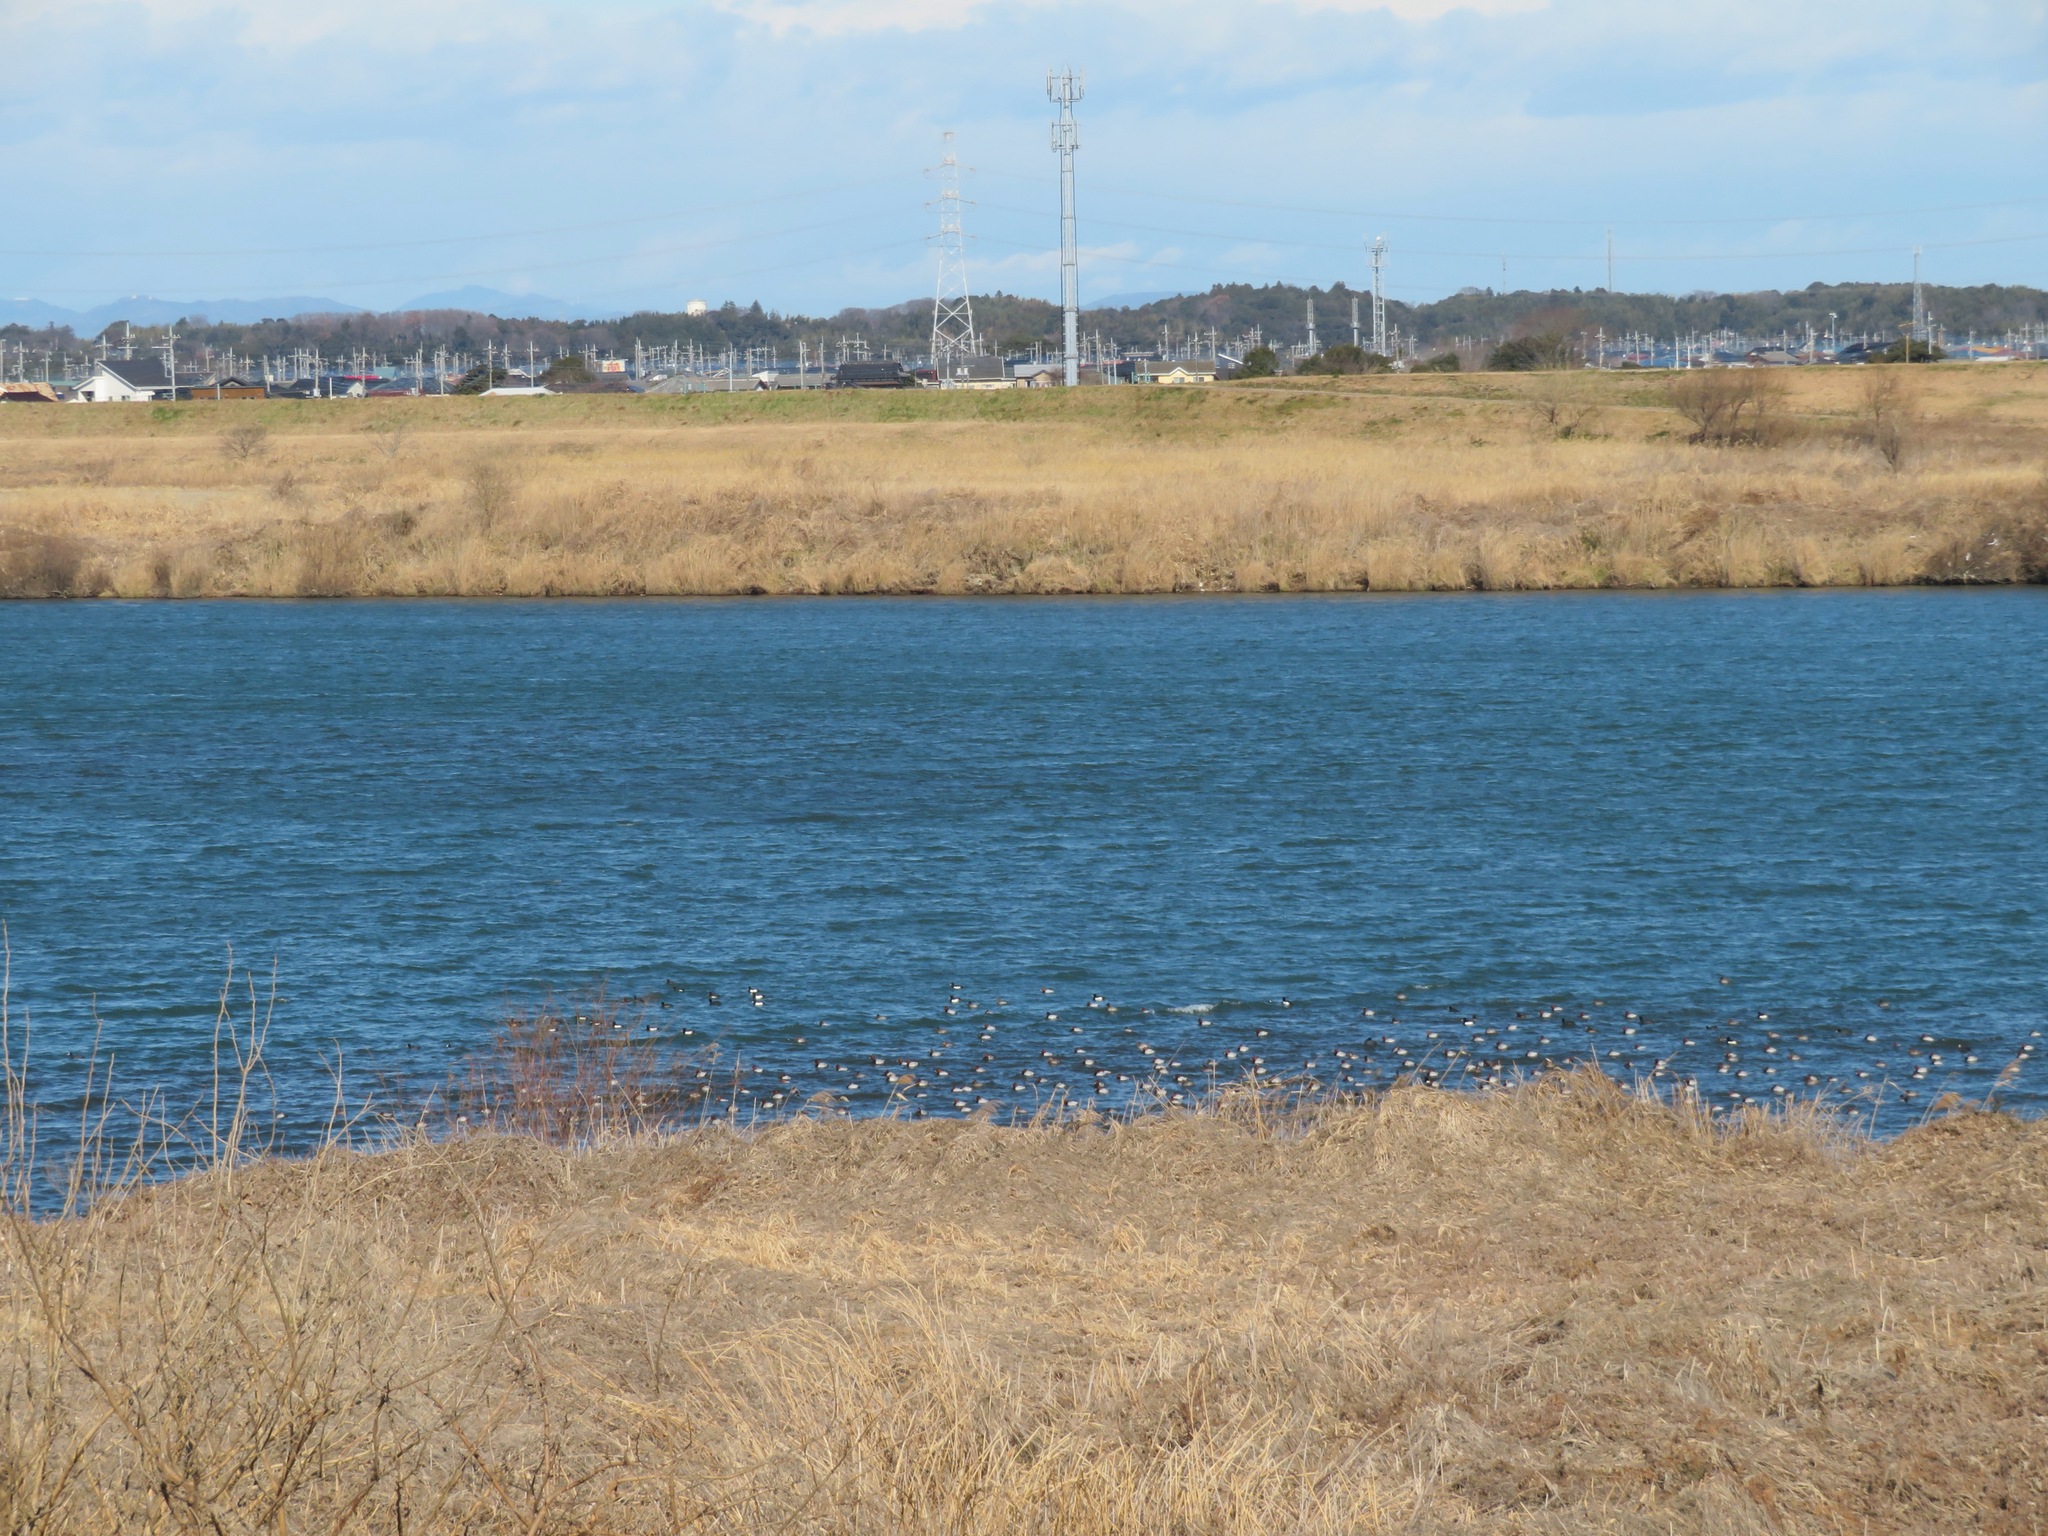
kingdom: Animalia
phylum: Chordata
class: Aves
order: Anseriformes
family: Anatidae
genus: Aythya
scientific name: Aythya ferina
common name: Common pochard
